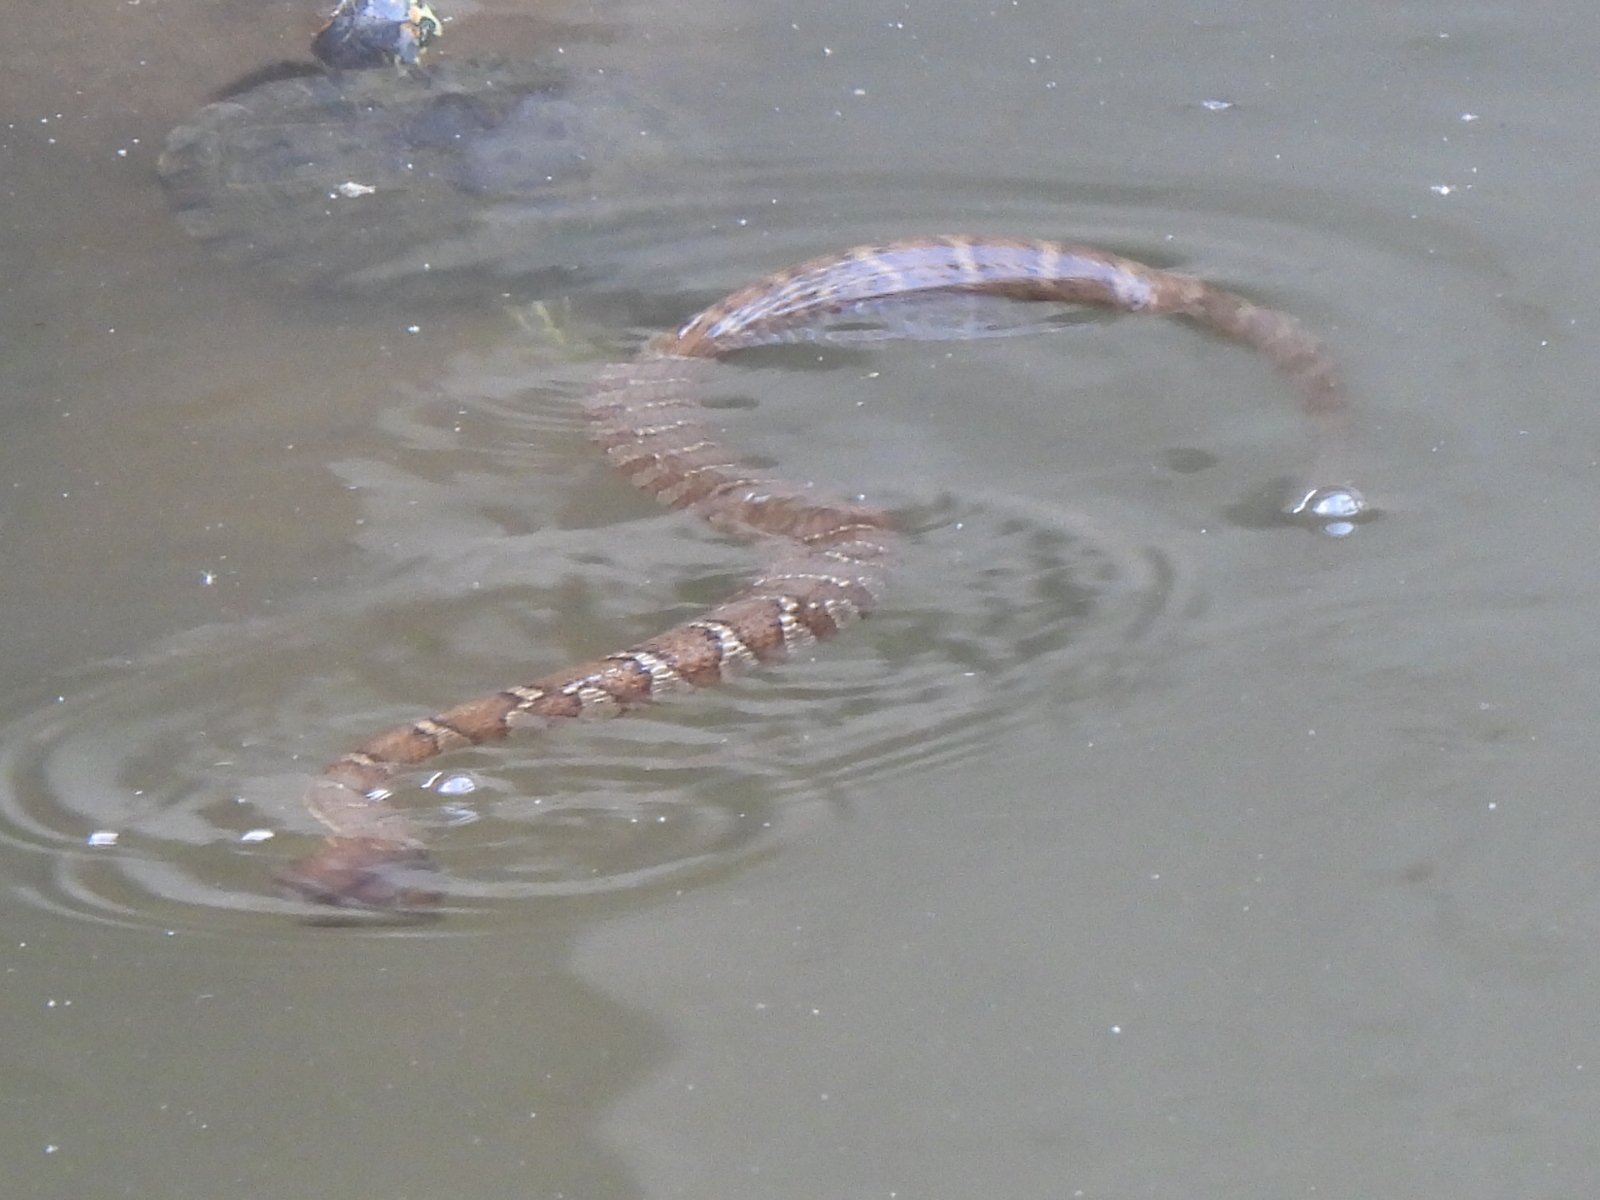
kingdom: Animalia
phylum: Chordata
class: Squamata
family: Colubridae
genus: Nerodia
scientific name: Nerodia sipedon
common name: Northern water snake
